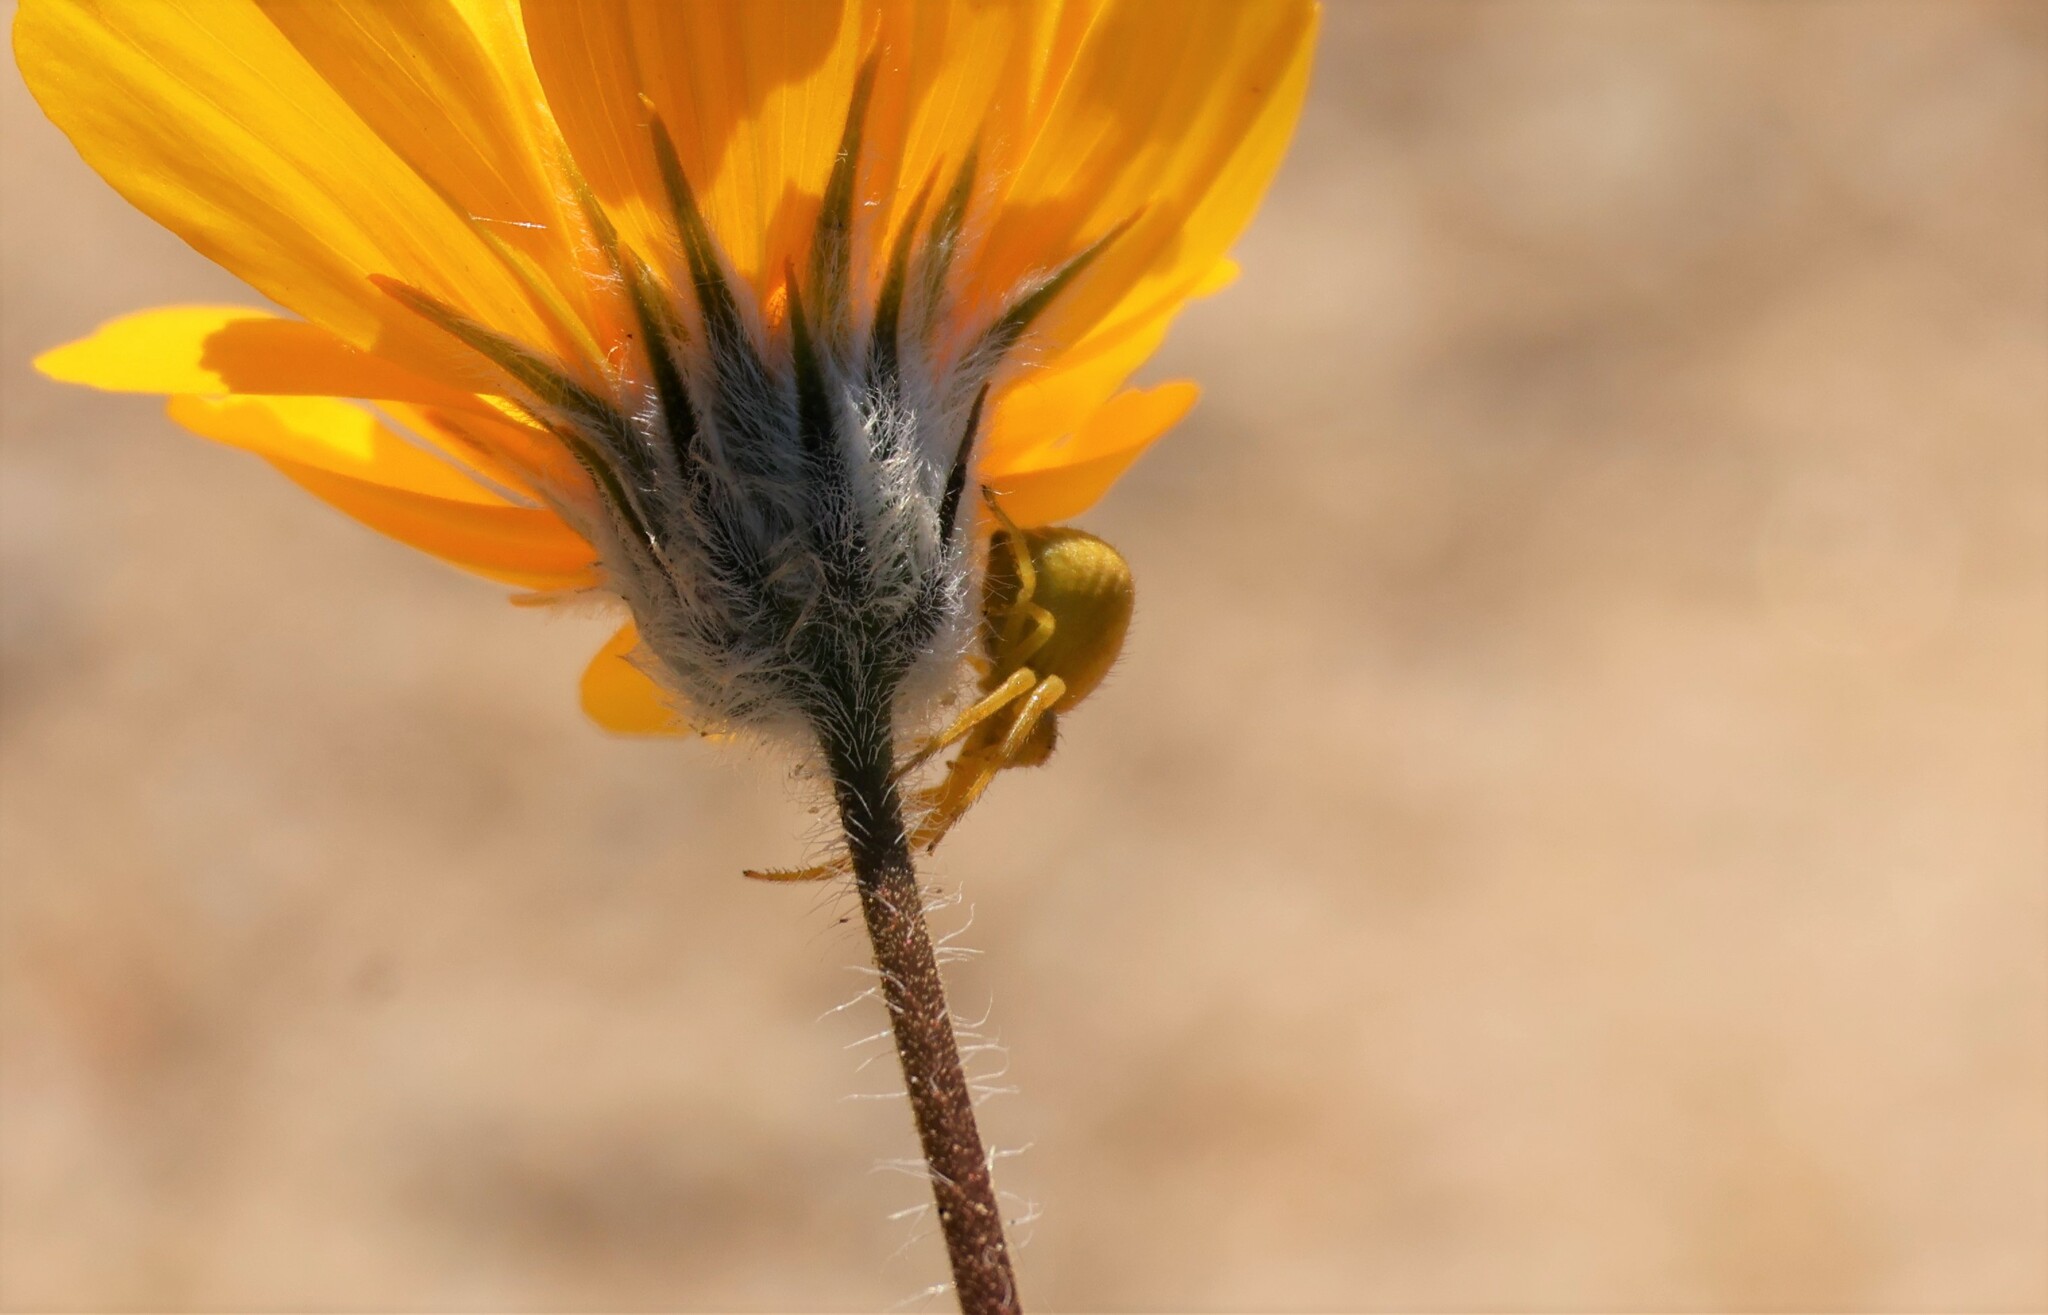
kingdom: Animalia
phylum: Arthropoda
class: Arachnida
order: Araneae
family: Thomisidae
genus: Misumena
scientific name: Misumena vatia
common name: Goldenrod crab spider
